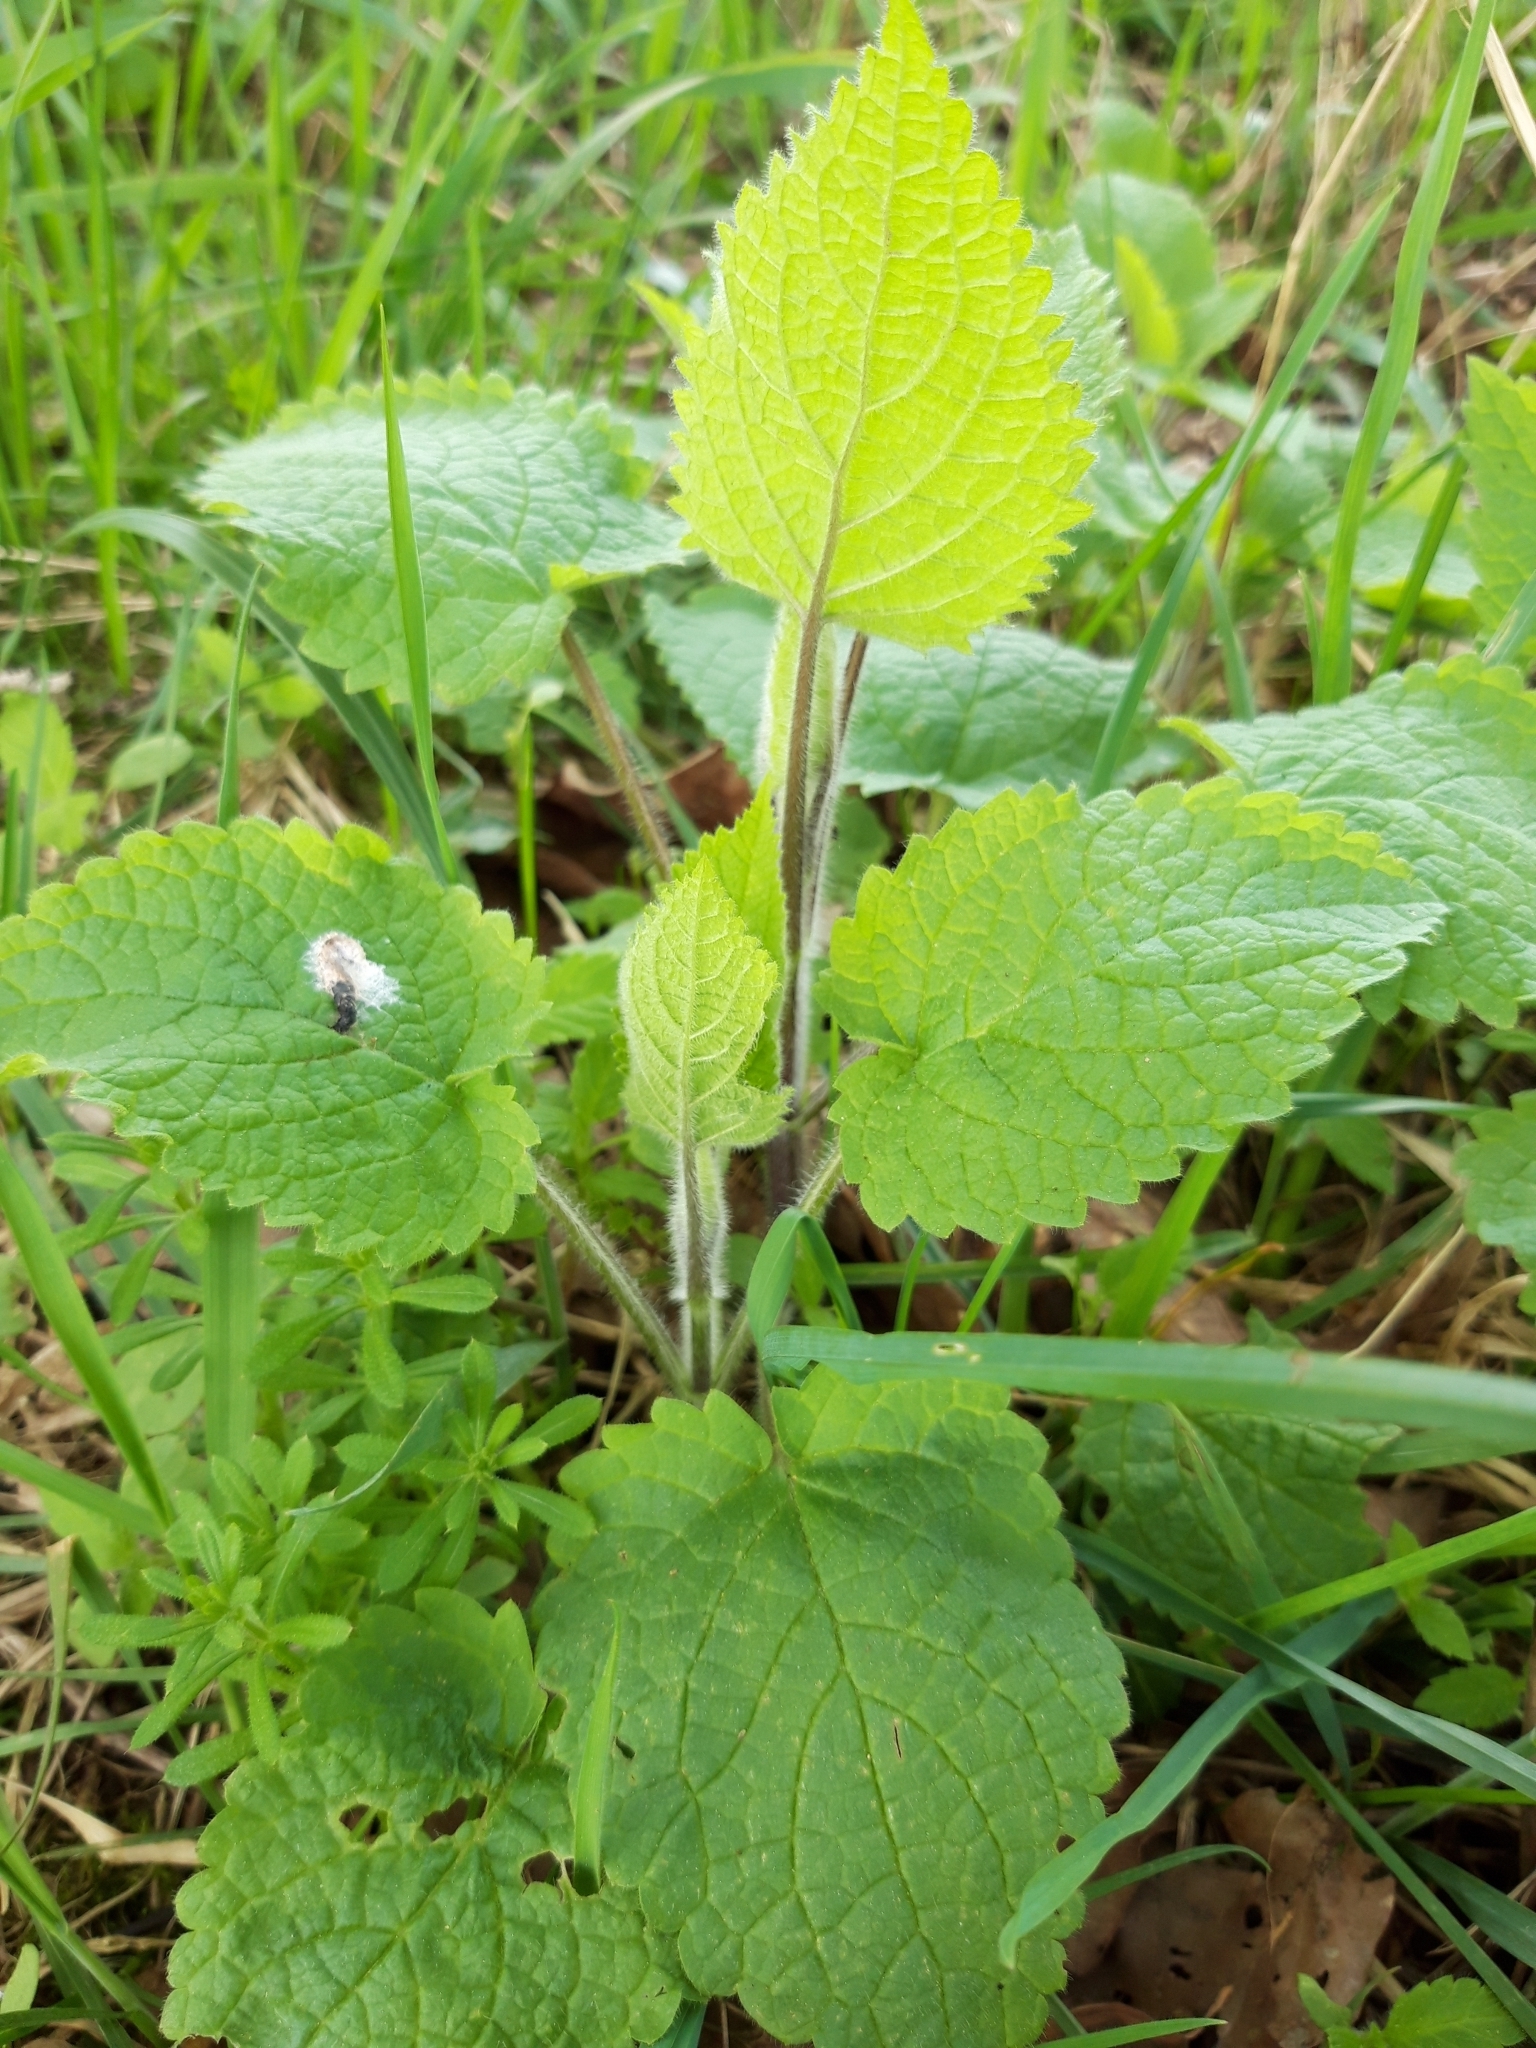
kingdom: Plantae
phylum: Tracheophyta
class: Magnoliopsida
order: Lamiales
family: Lamiaceae
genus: Stachys
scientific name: Stachys sylvatica
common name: Hedge woundwort
